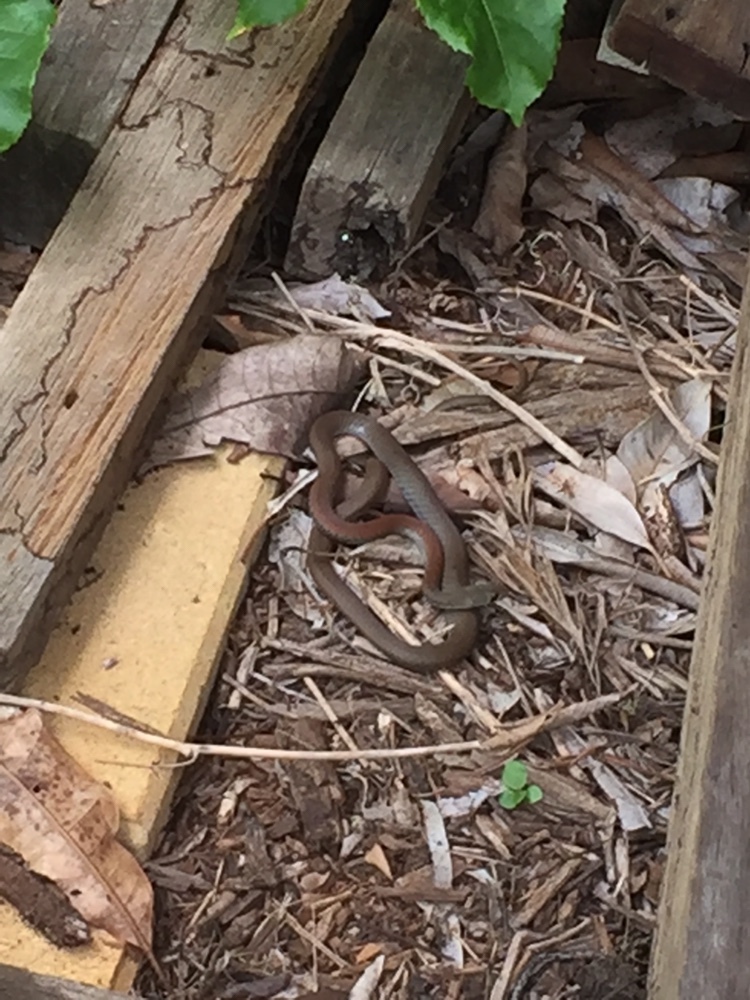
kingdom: Animalia
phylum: Chordata
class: Squamata
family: Elapidae
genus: Demansia
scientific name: Demansia psammophis
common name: Yellow-faced whip snake
